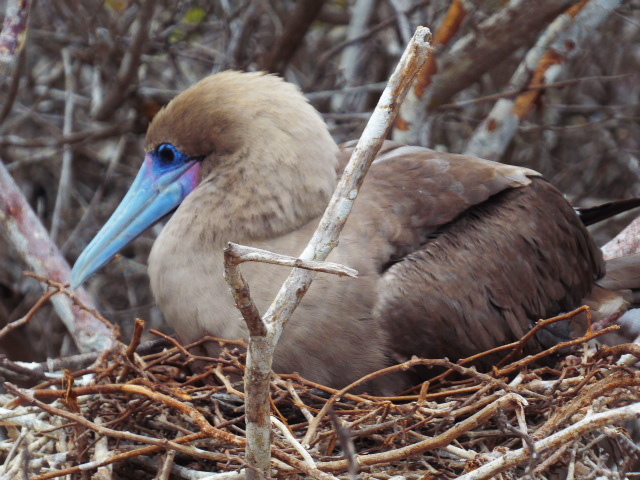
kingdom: Animalia
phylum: Chordata
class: Aves
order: Suliformes
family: Sulidae
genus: Sula
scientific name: Sula sula
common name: Red-footed booby
